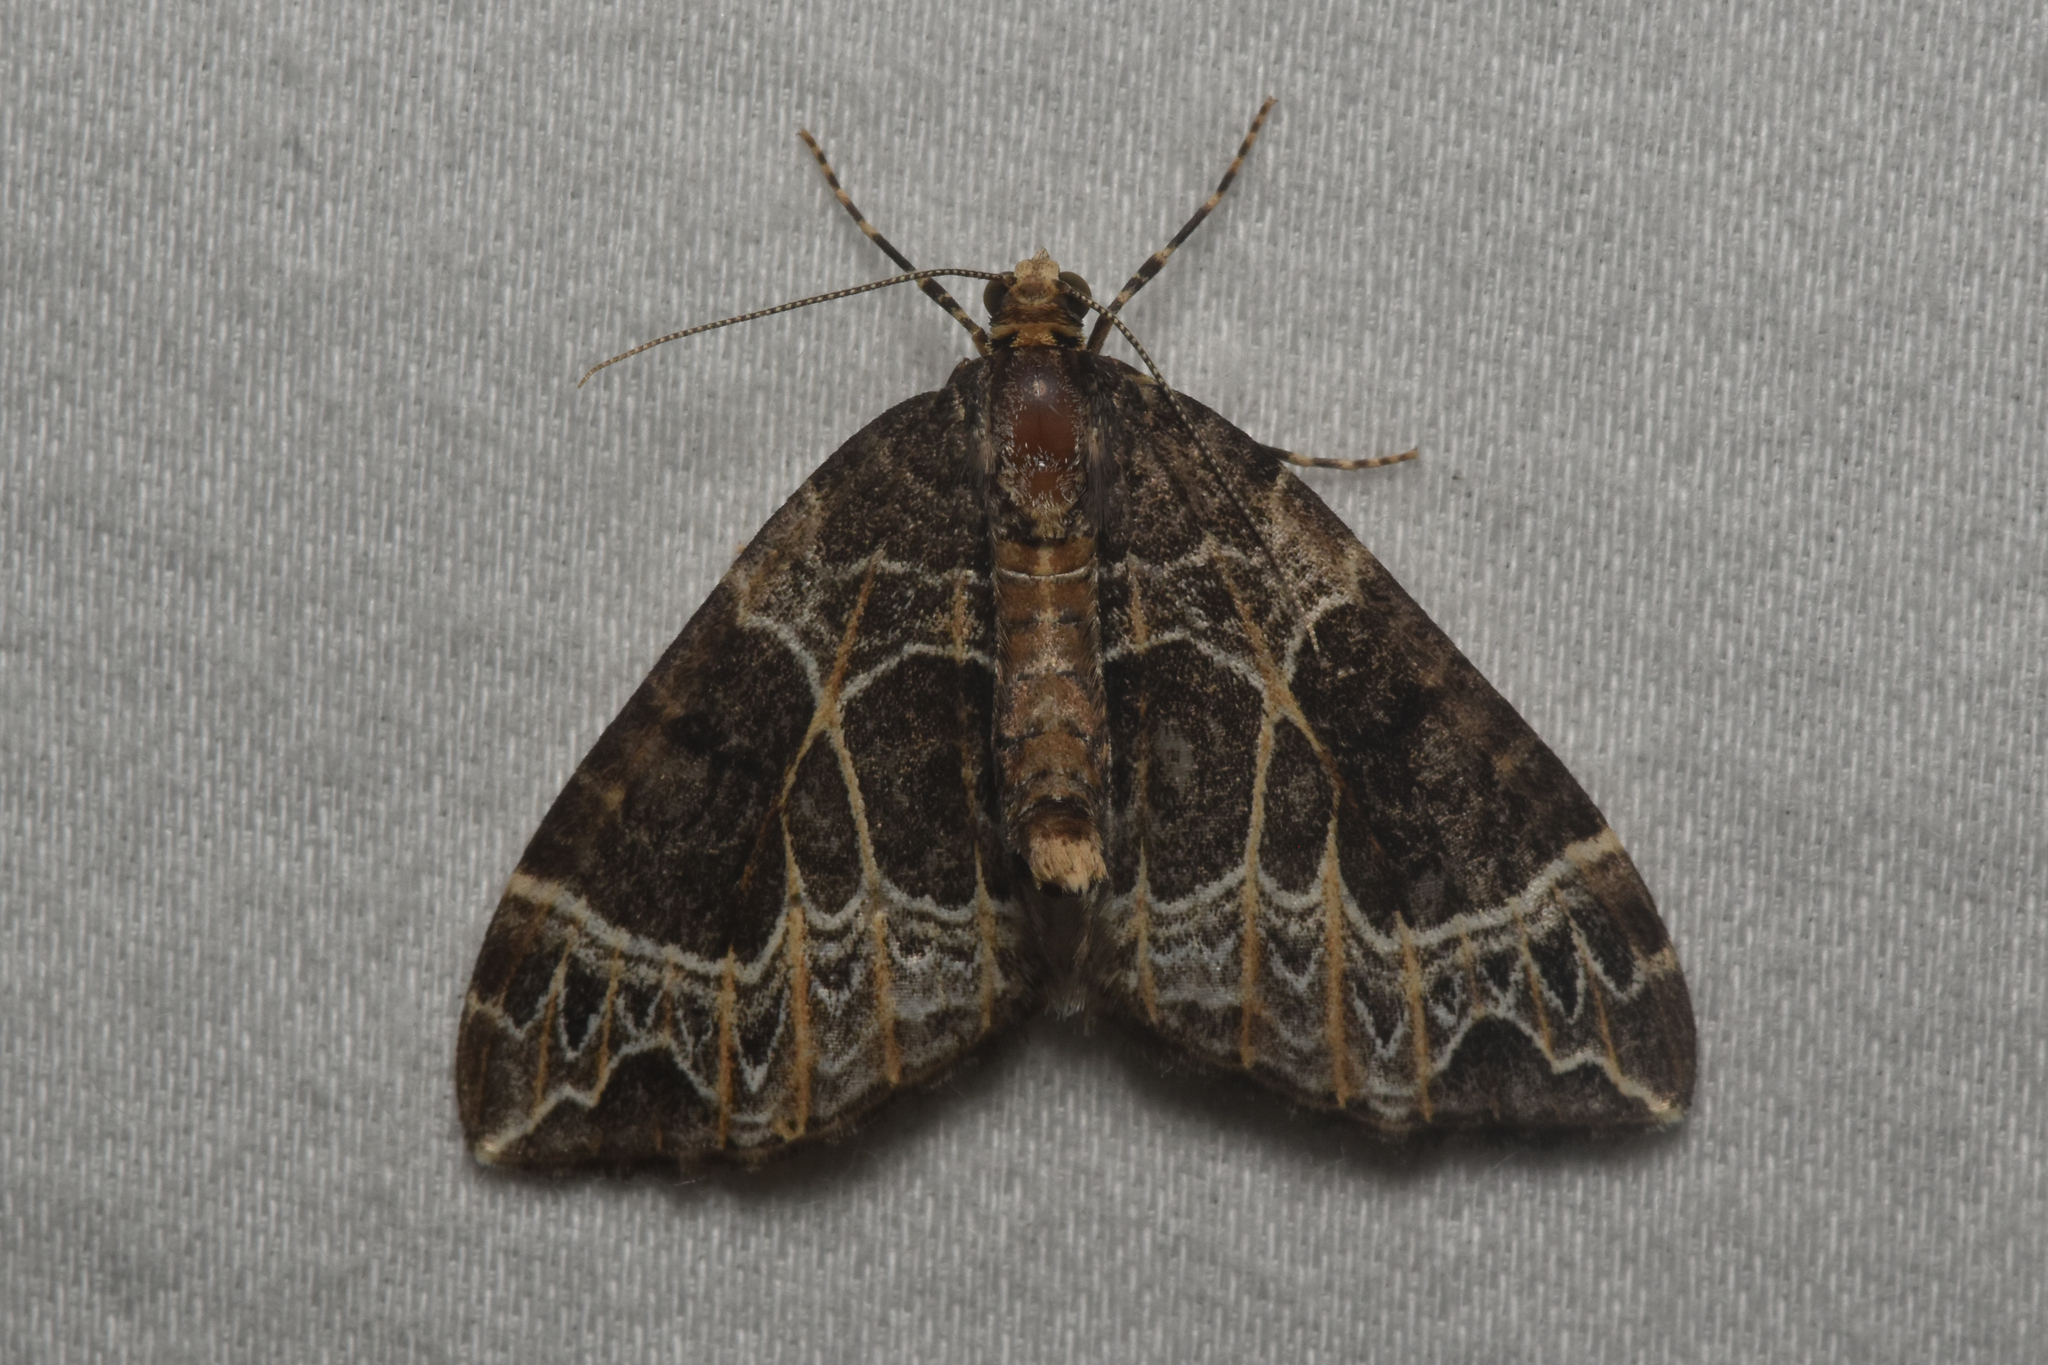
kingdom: Animalia
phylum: Arthropoda
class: Insecta
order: Lepidoptera
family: Geometridae
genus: Ecliptopera
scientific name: Ecliptopera silaceata
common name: Small phoenix
